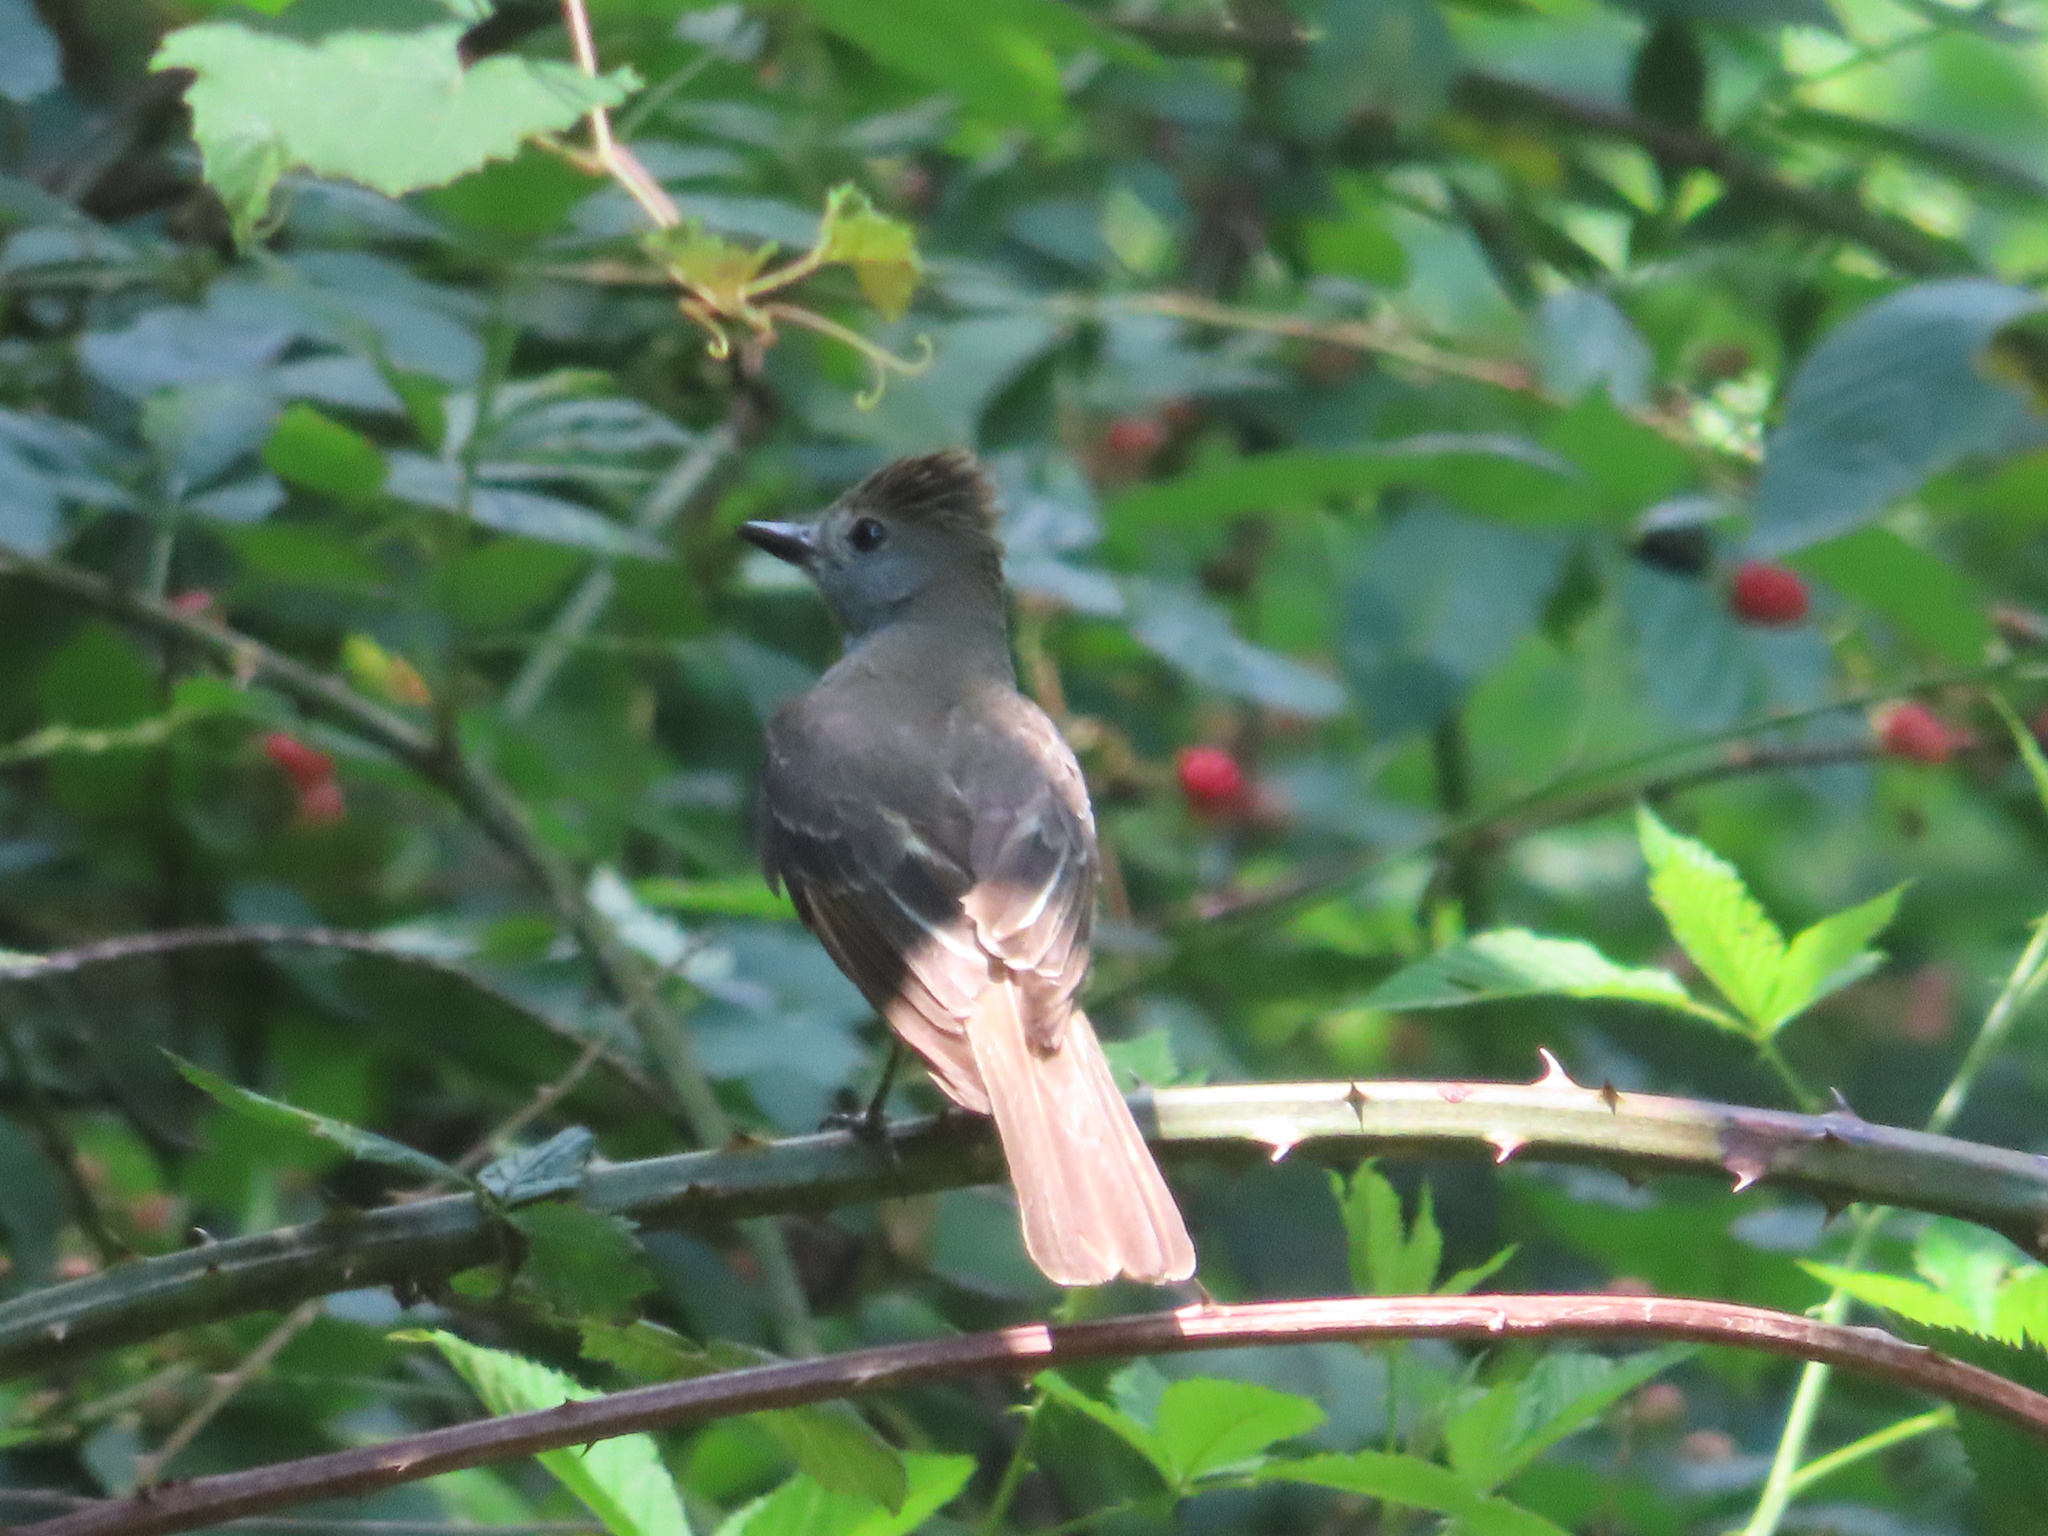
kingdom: Animalia
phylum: Chordata
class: Aves
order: Passeriformes
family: Tyrannidae
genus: Myiarchus
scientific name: Myiarchus crinitus
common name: Great crested flycatcher
